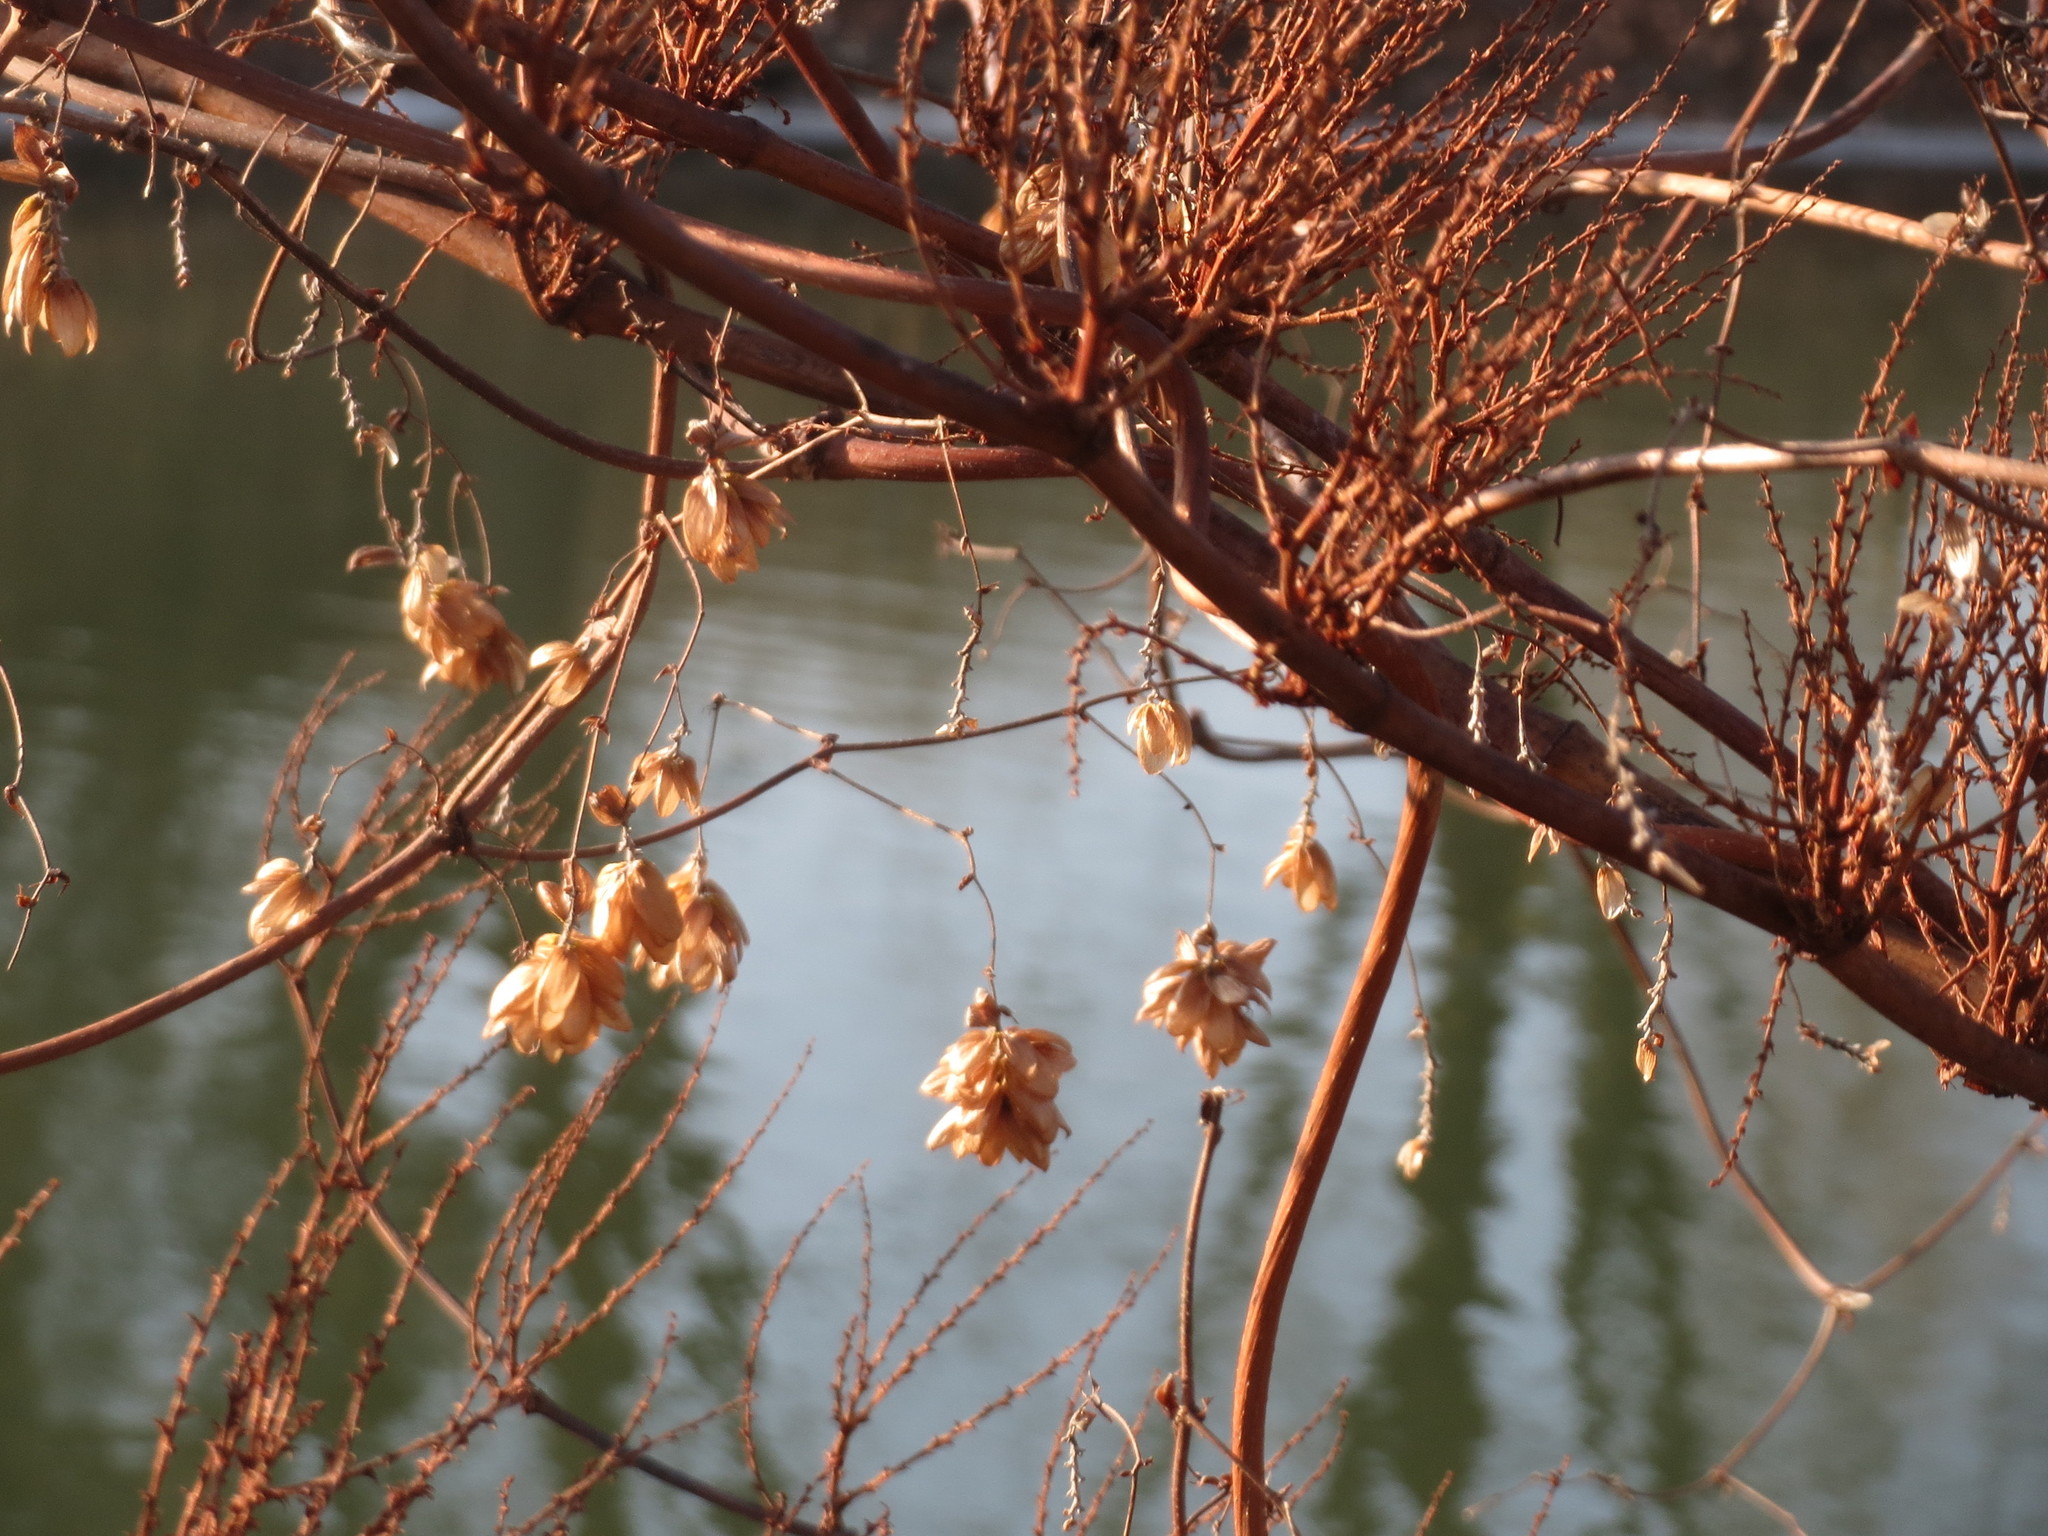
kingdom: Plantae
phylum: Tracheophyta
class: Magnoliopsida
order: Rosales
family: Cannabaceae
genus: Humulus
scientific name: Humulus lupulus
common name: Hop
